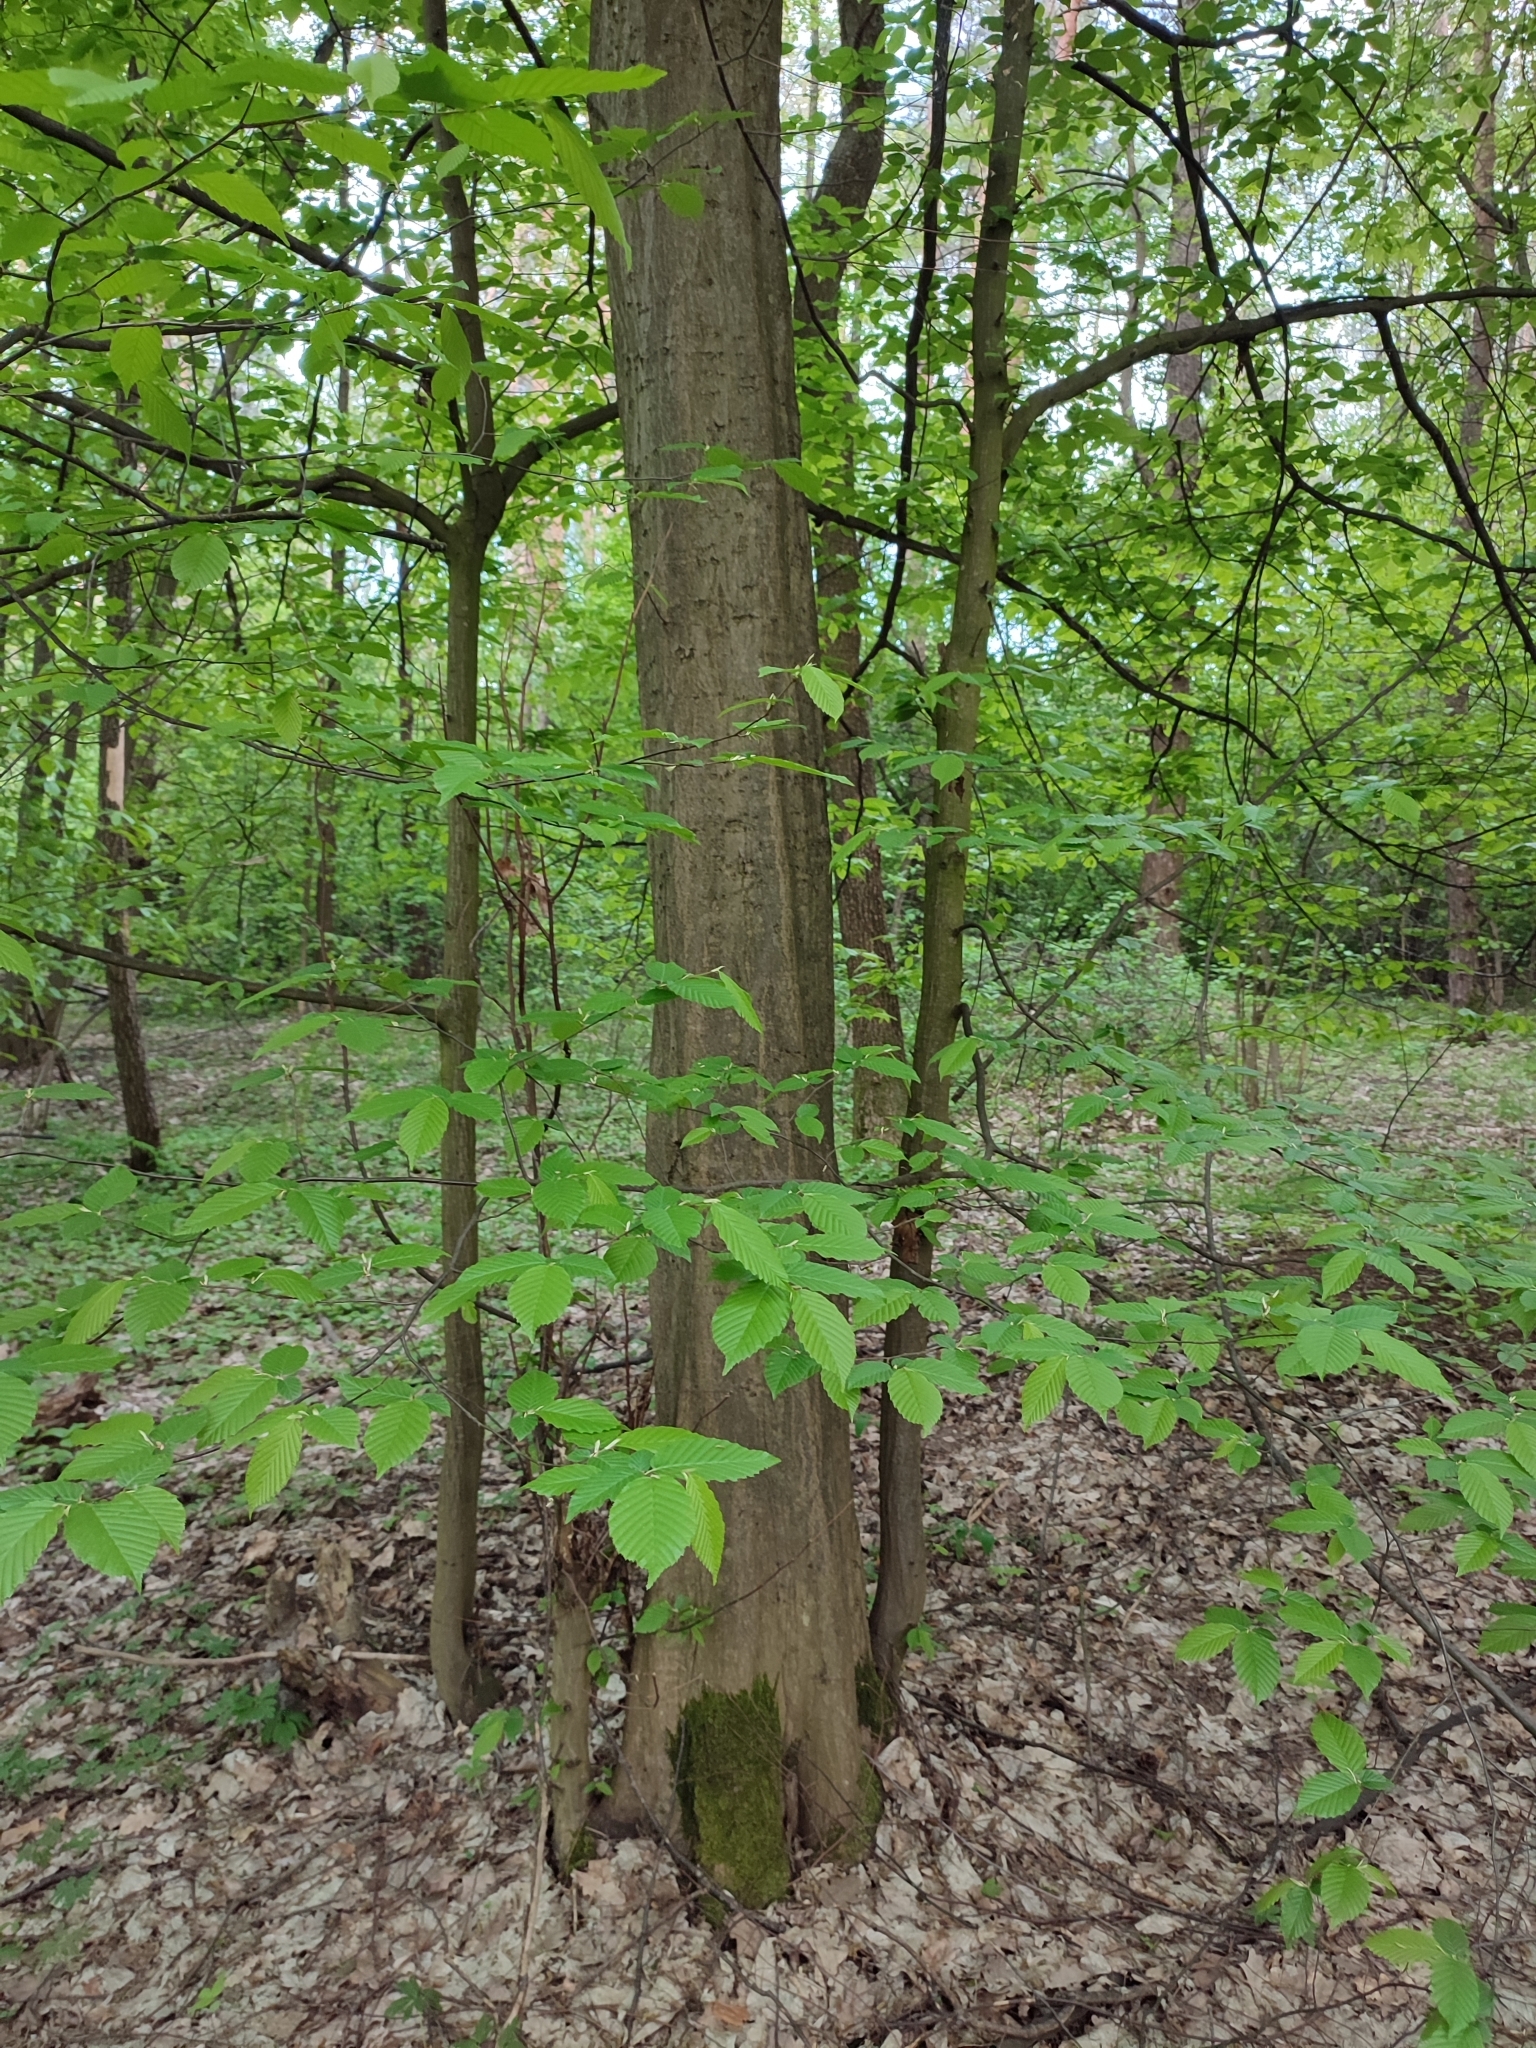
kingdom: Plantae
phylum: Tracheophyta
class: Magnoliopsida
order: Fagales
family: Betulaceae
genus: Carpinus
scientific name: Carpinus betulus
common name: Hornbeam
